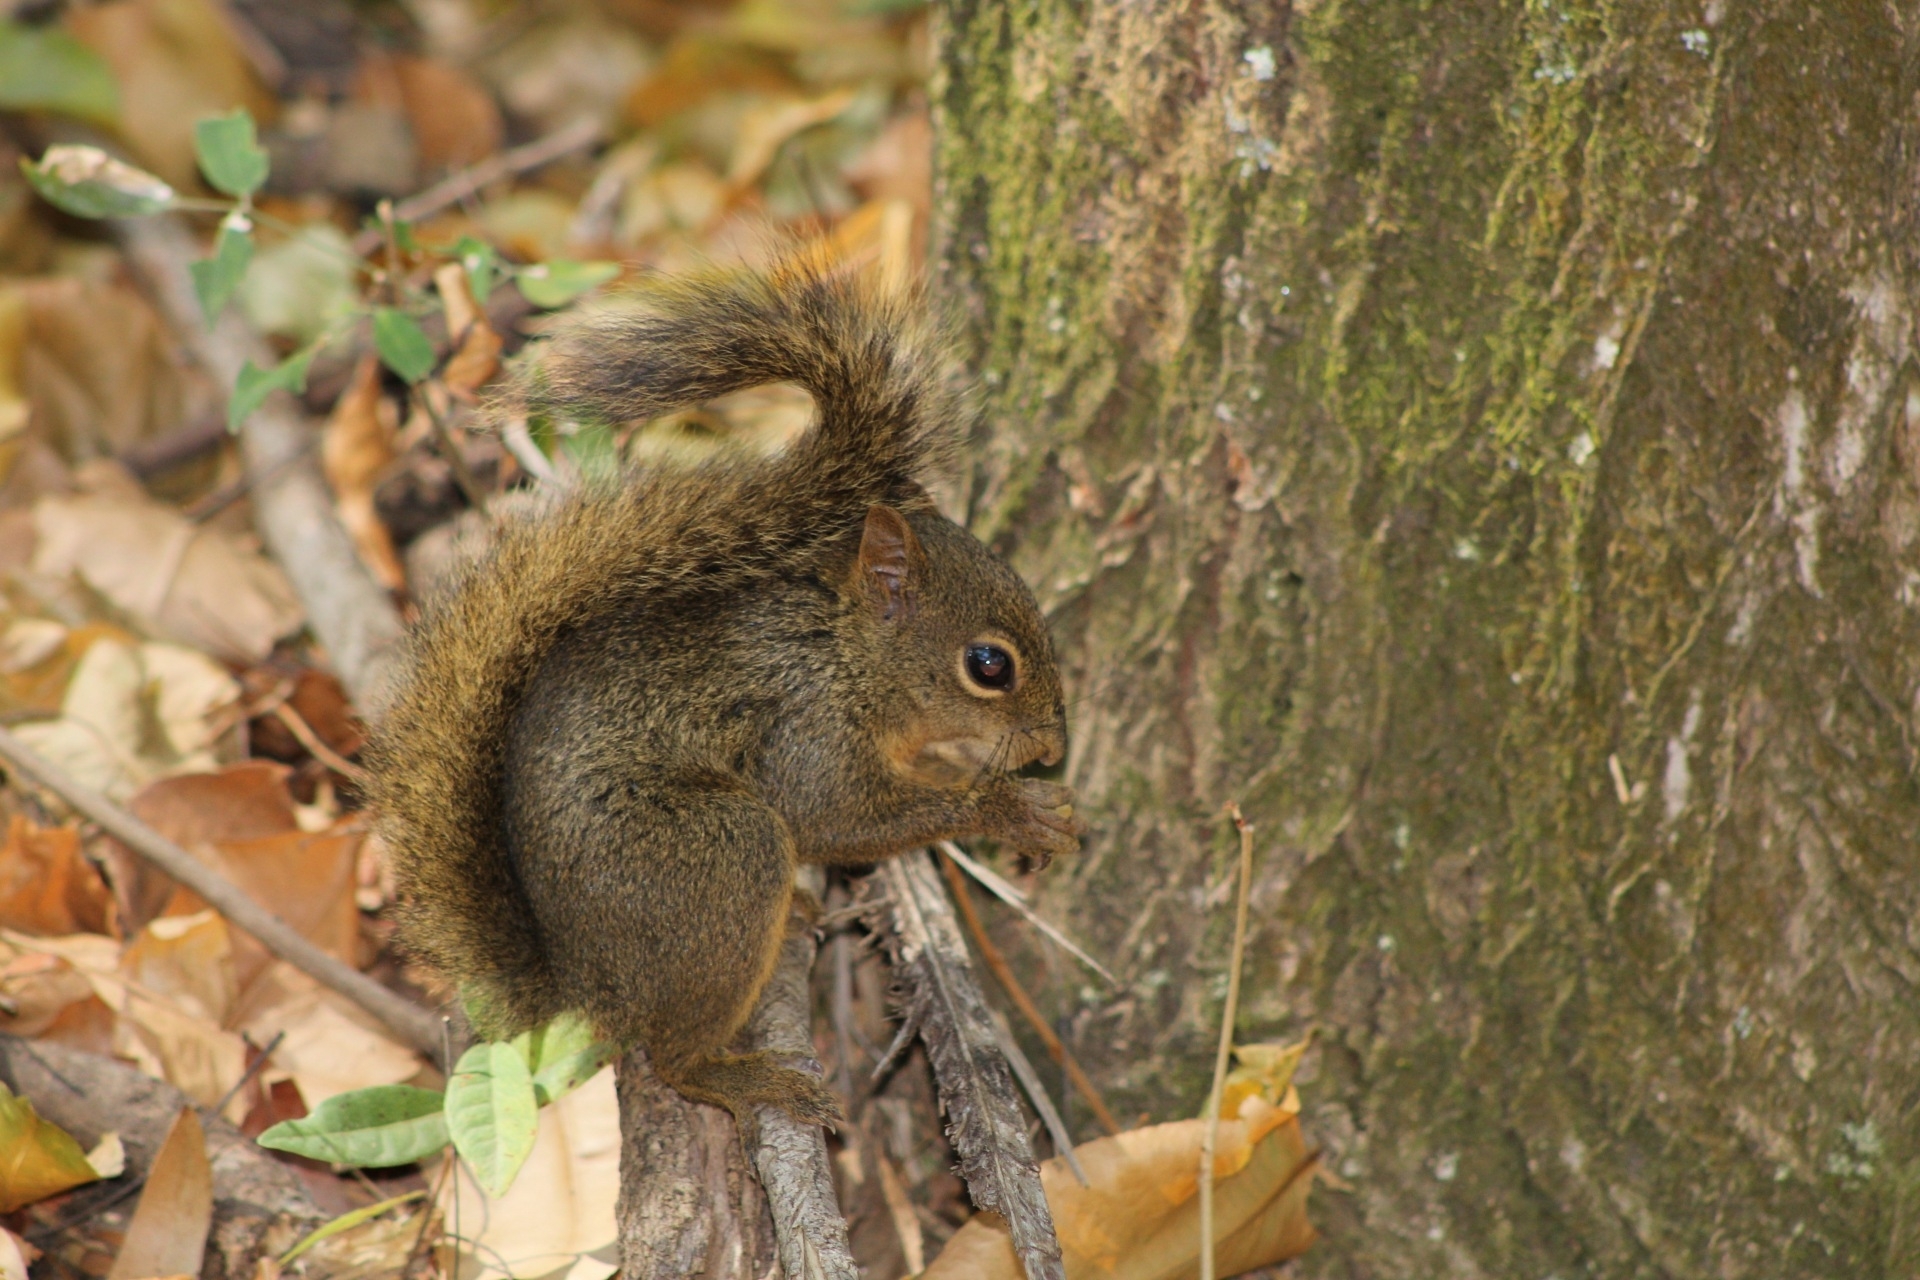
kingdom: Animalia
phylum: Chordata
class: Mammalia
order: Rodentia
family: Sciuridae
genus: Sciurus
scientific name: Sciurus aestuans
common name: Guianan squirrel
